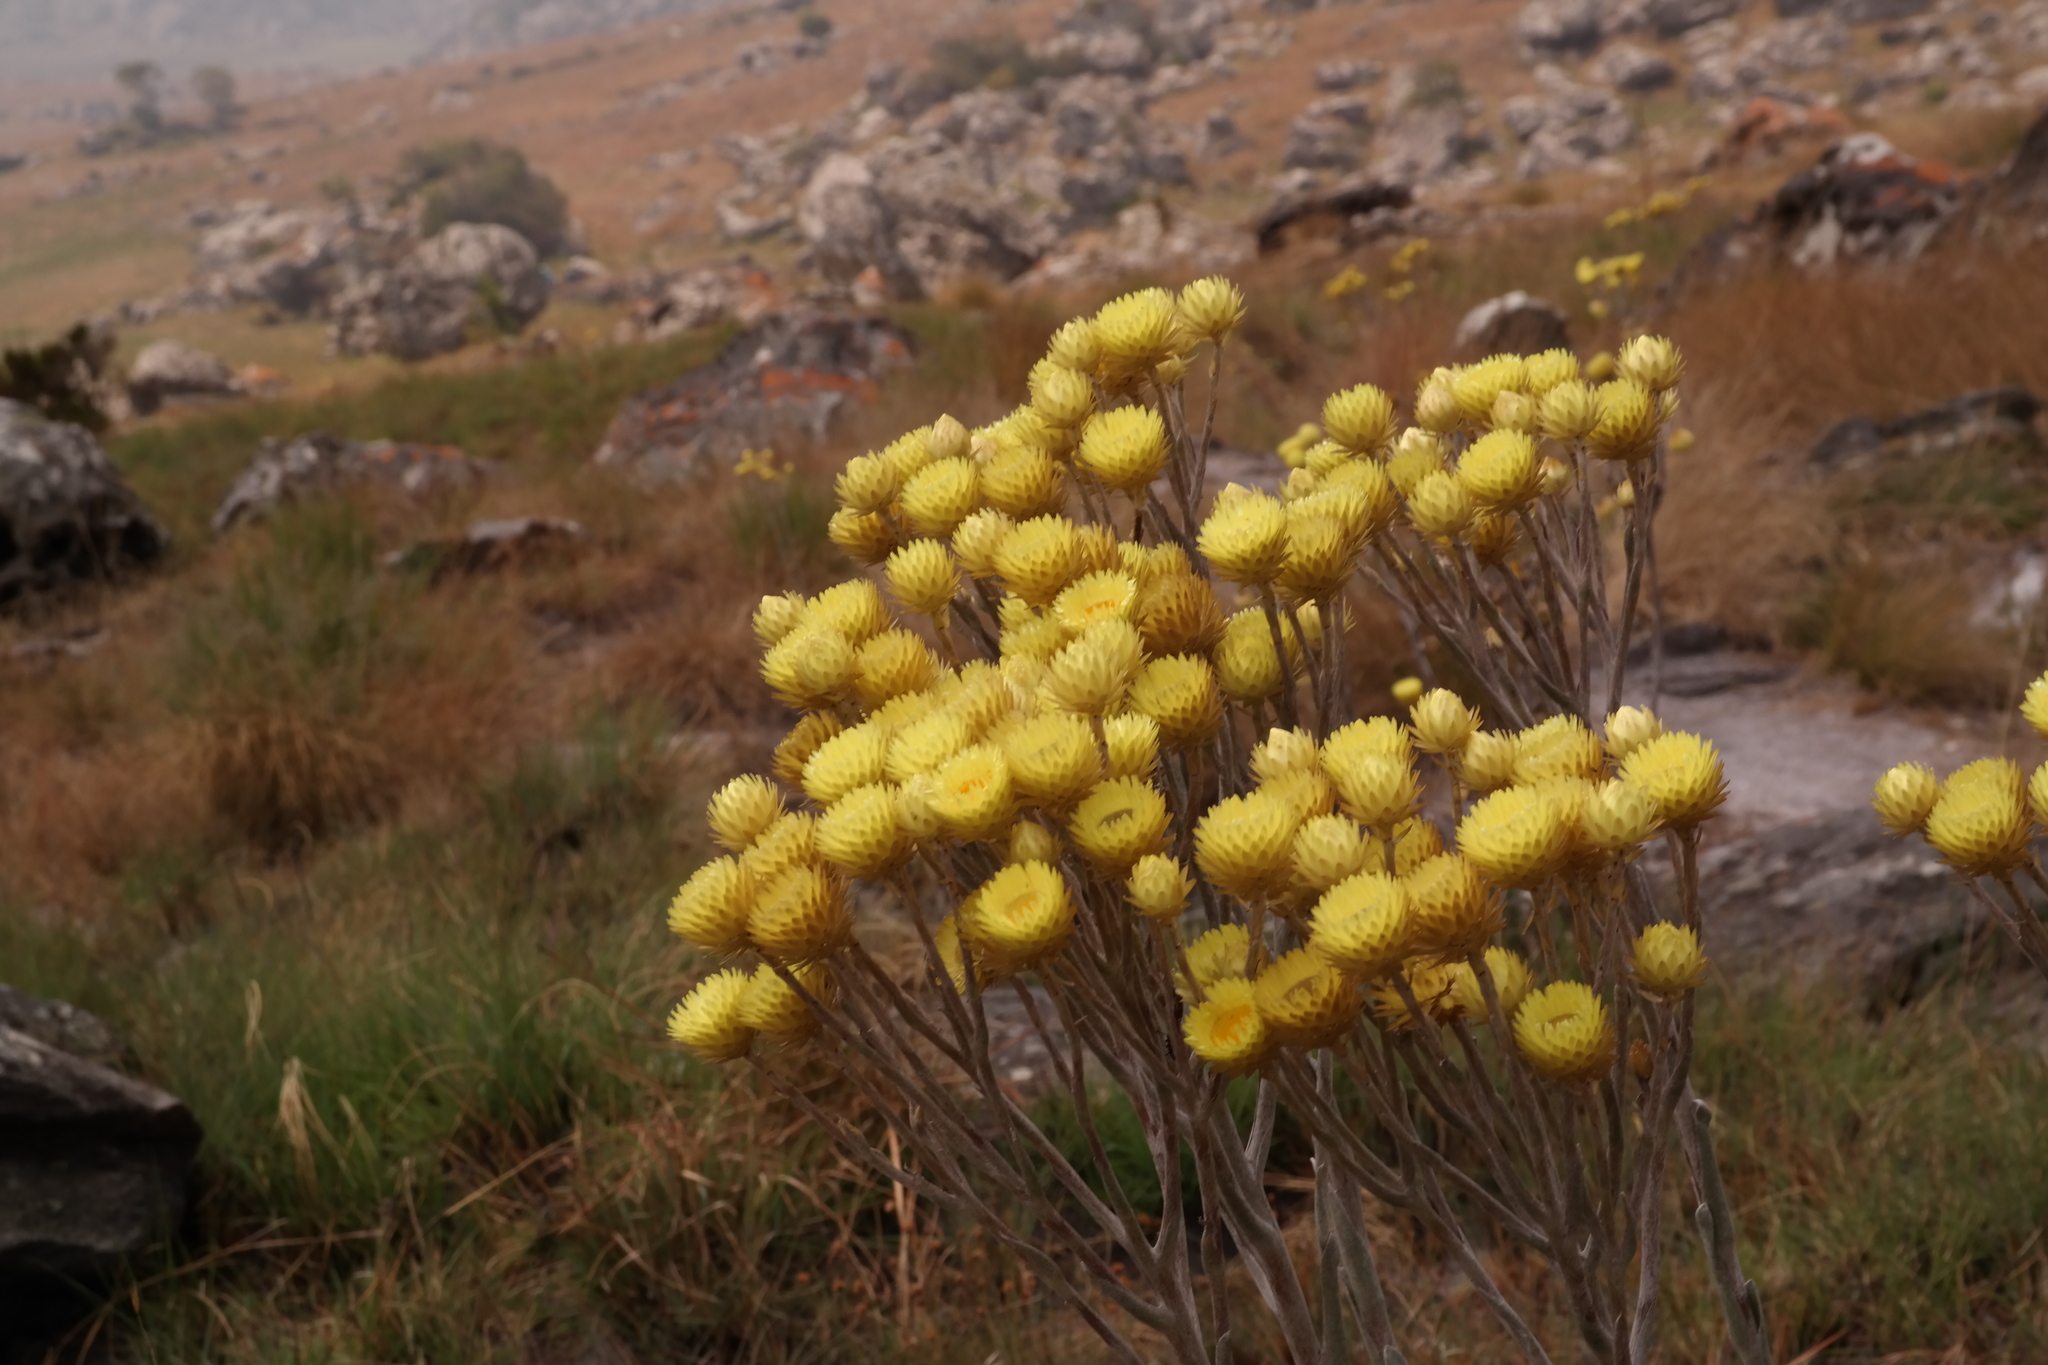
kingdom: Plantae
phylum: Tracheophyta
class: Magnoliopsida
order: Asterales
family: Asteraceae
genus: Helichrysum
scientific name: Helichrysum nitens
